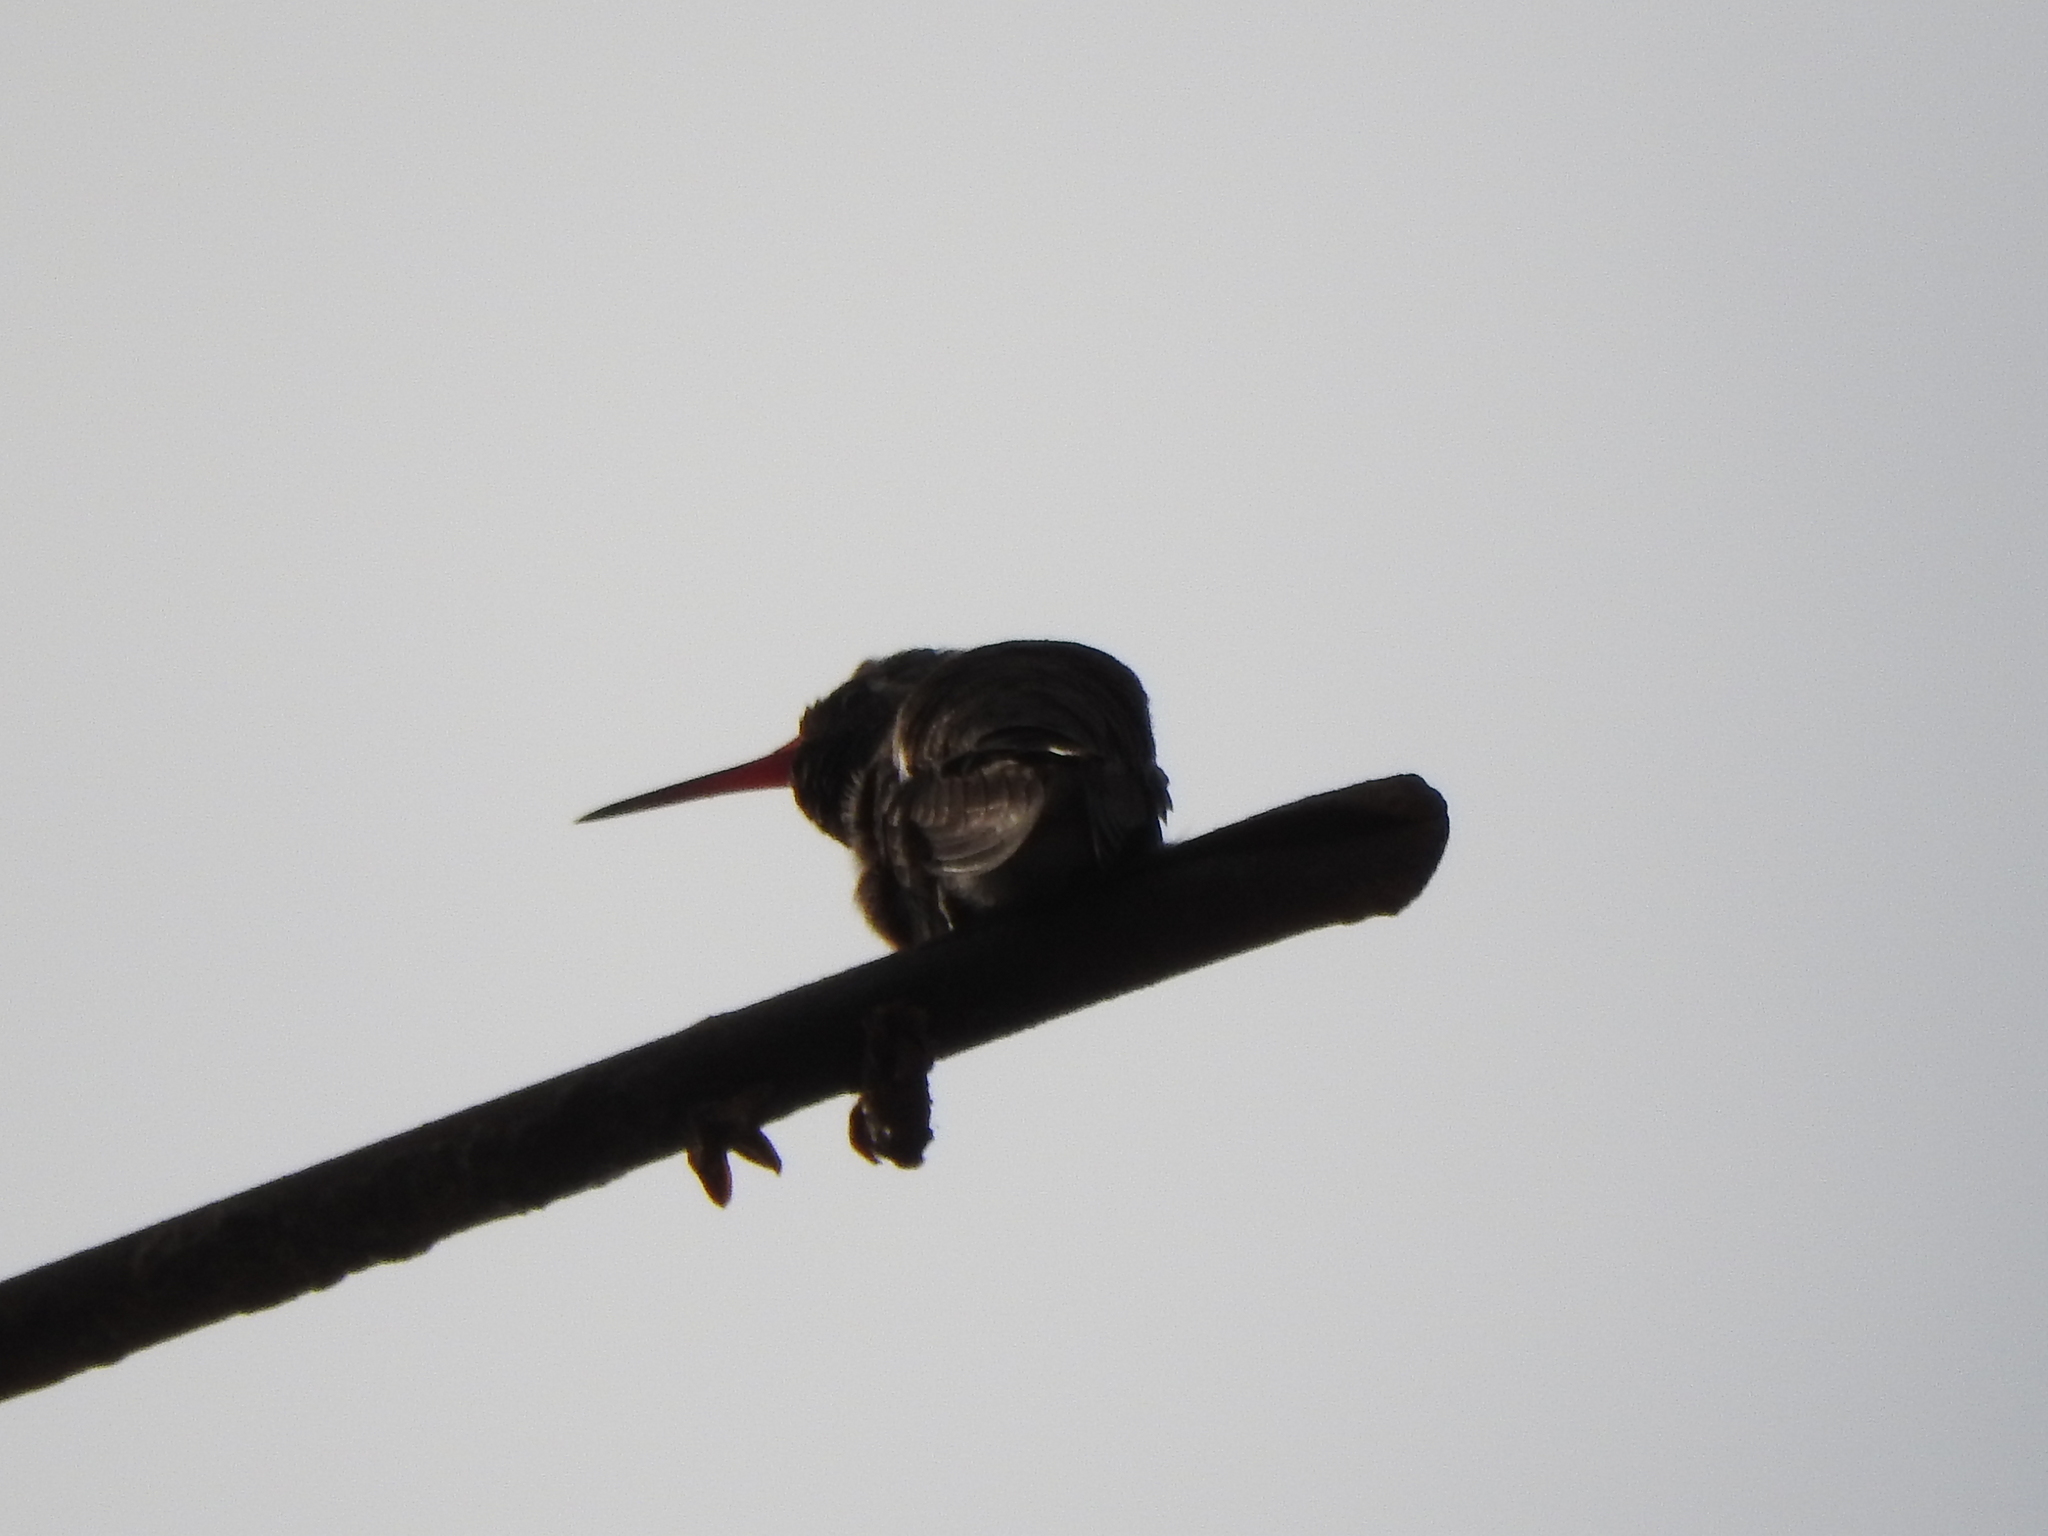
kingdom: Animalia
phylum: Chordata
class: Aves
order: Apodiformes
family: Trochilidae
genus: Cynanthus
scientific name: Cynanthus latirostris
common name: Broad-billed hummingbird
